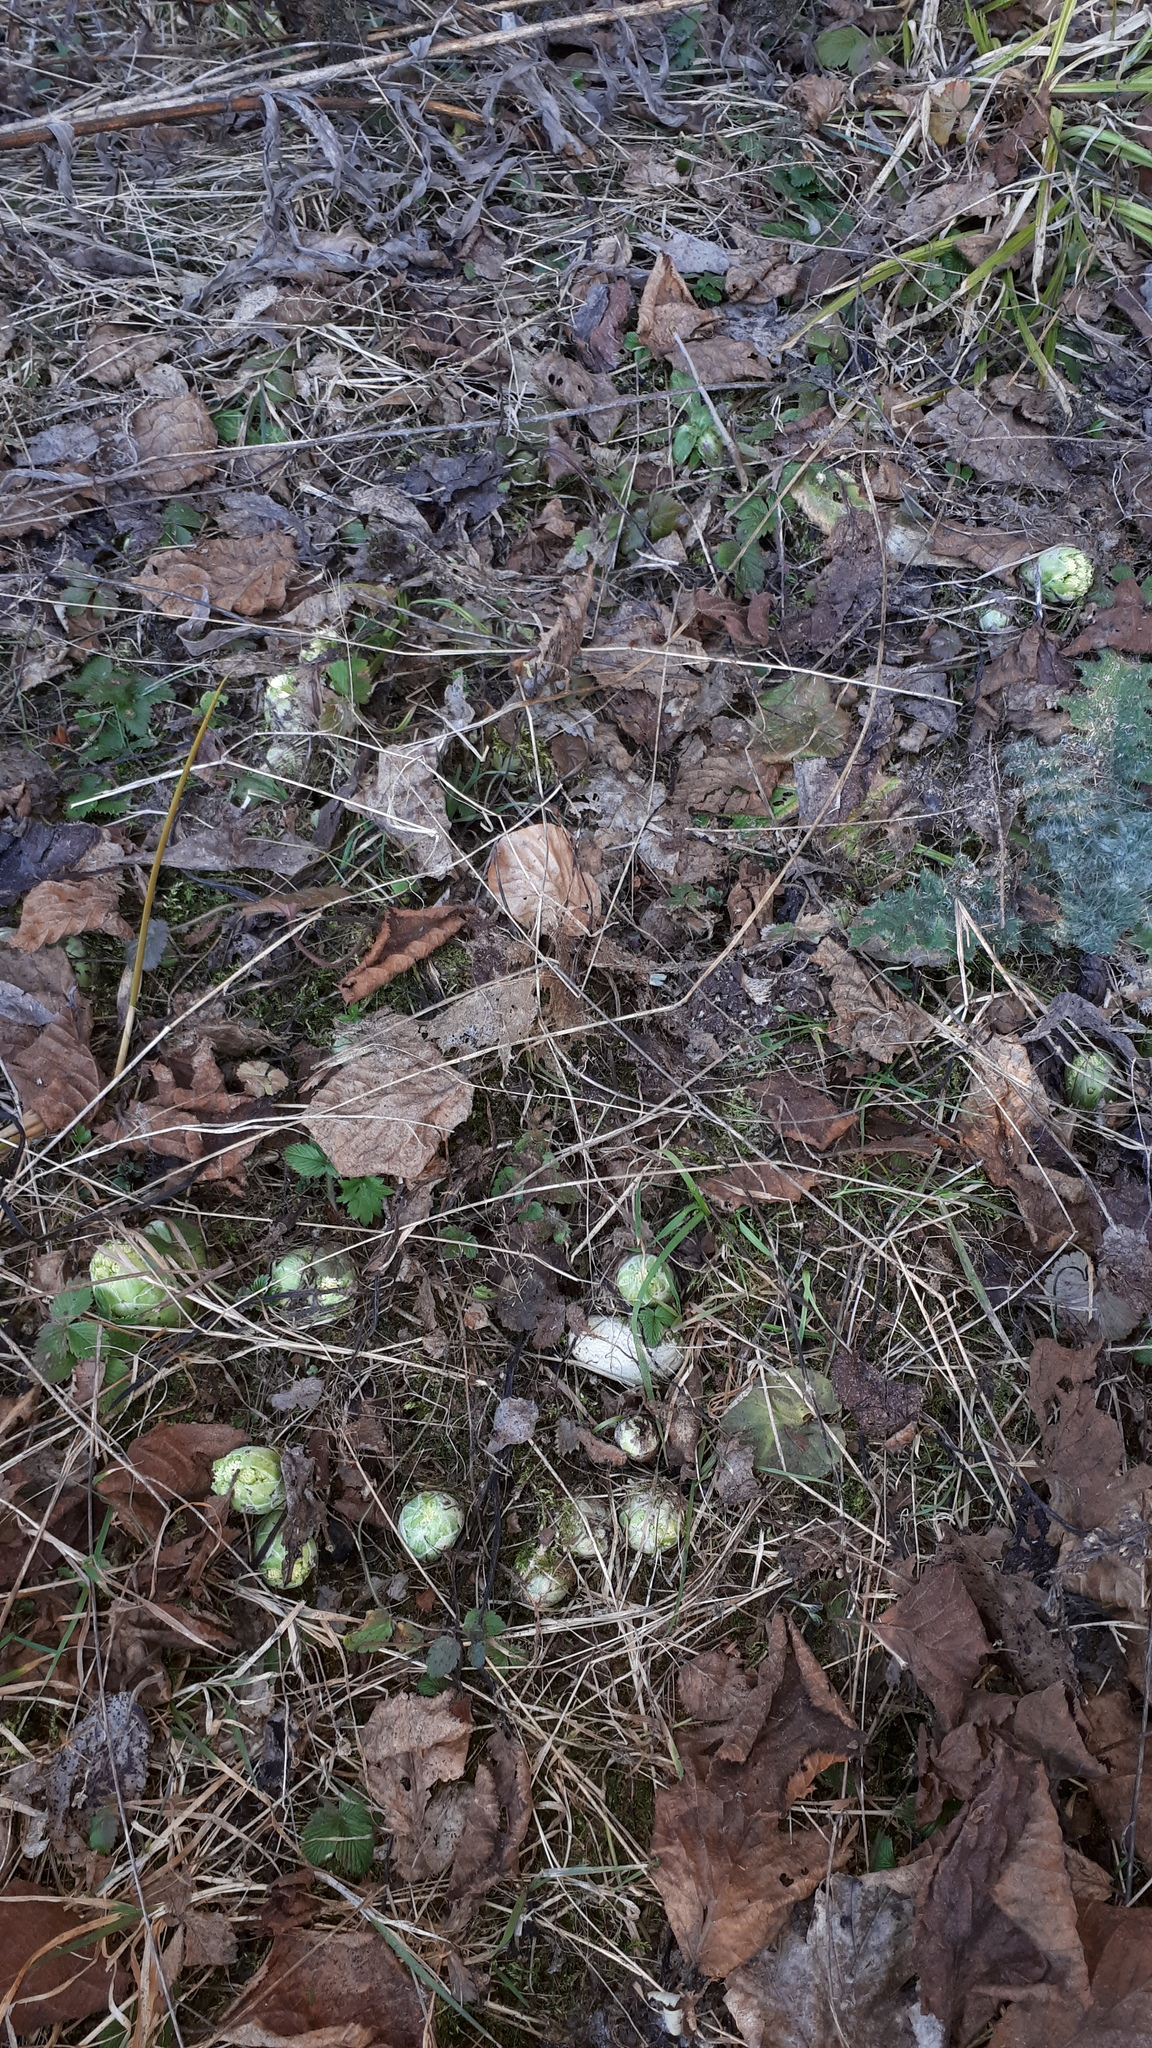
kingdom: Plantae
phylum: Tracheophyta
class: Magnoliopsida
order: Asterales
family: Asteraceae
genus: Petasites
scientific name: Petasites albus
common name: White butterbur
